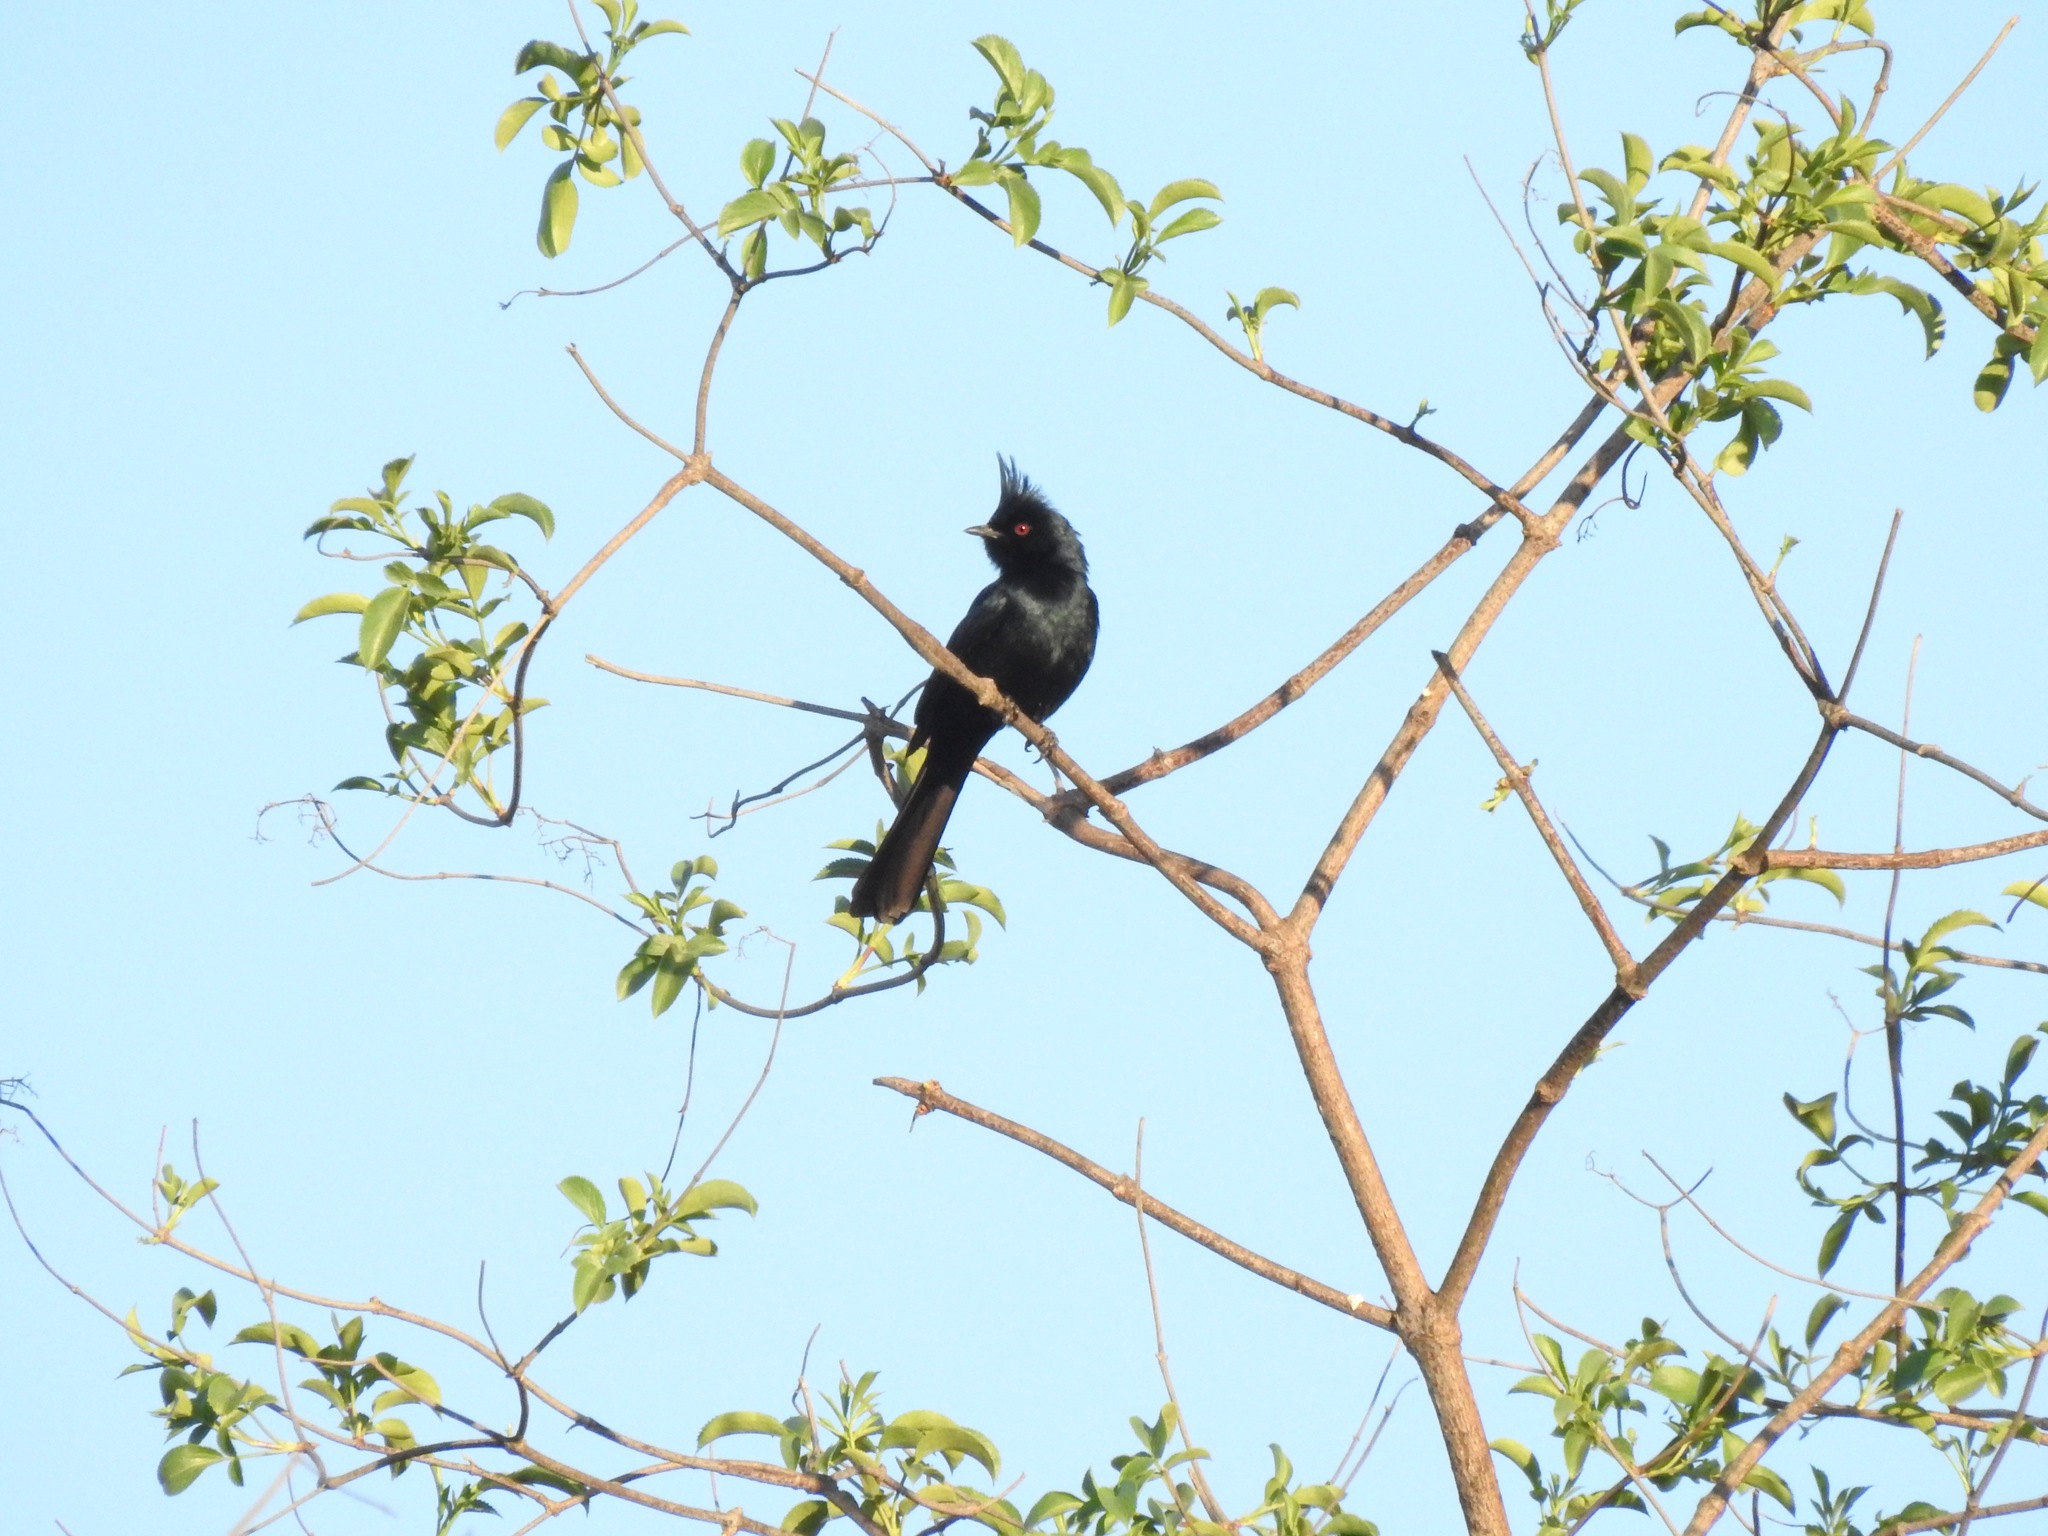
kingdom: Animalia
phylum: Chordata
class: Aves
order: Passeriformes
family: Ptilogonatidae
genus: Phainopepla
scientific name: Phainopepla nitens
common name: Phainopepla
